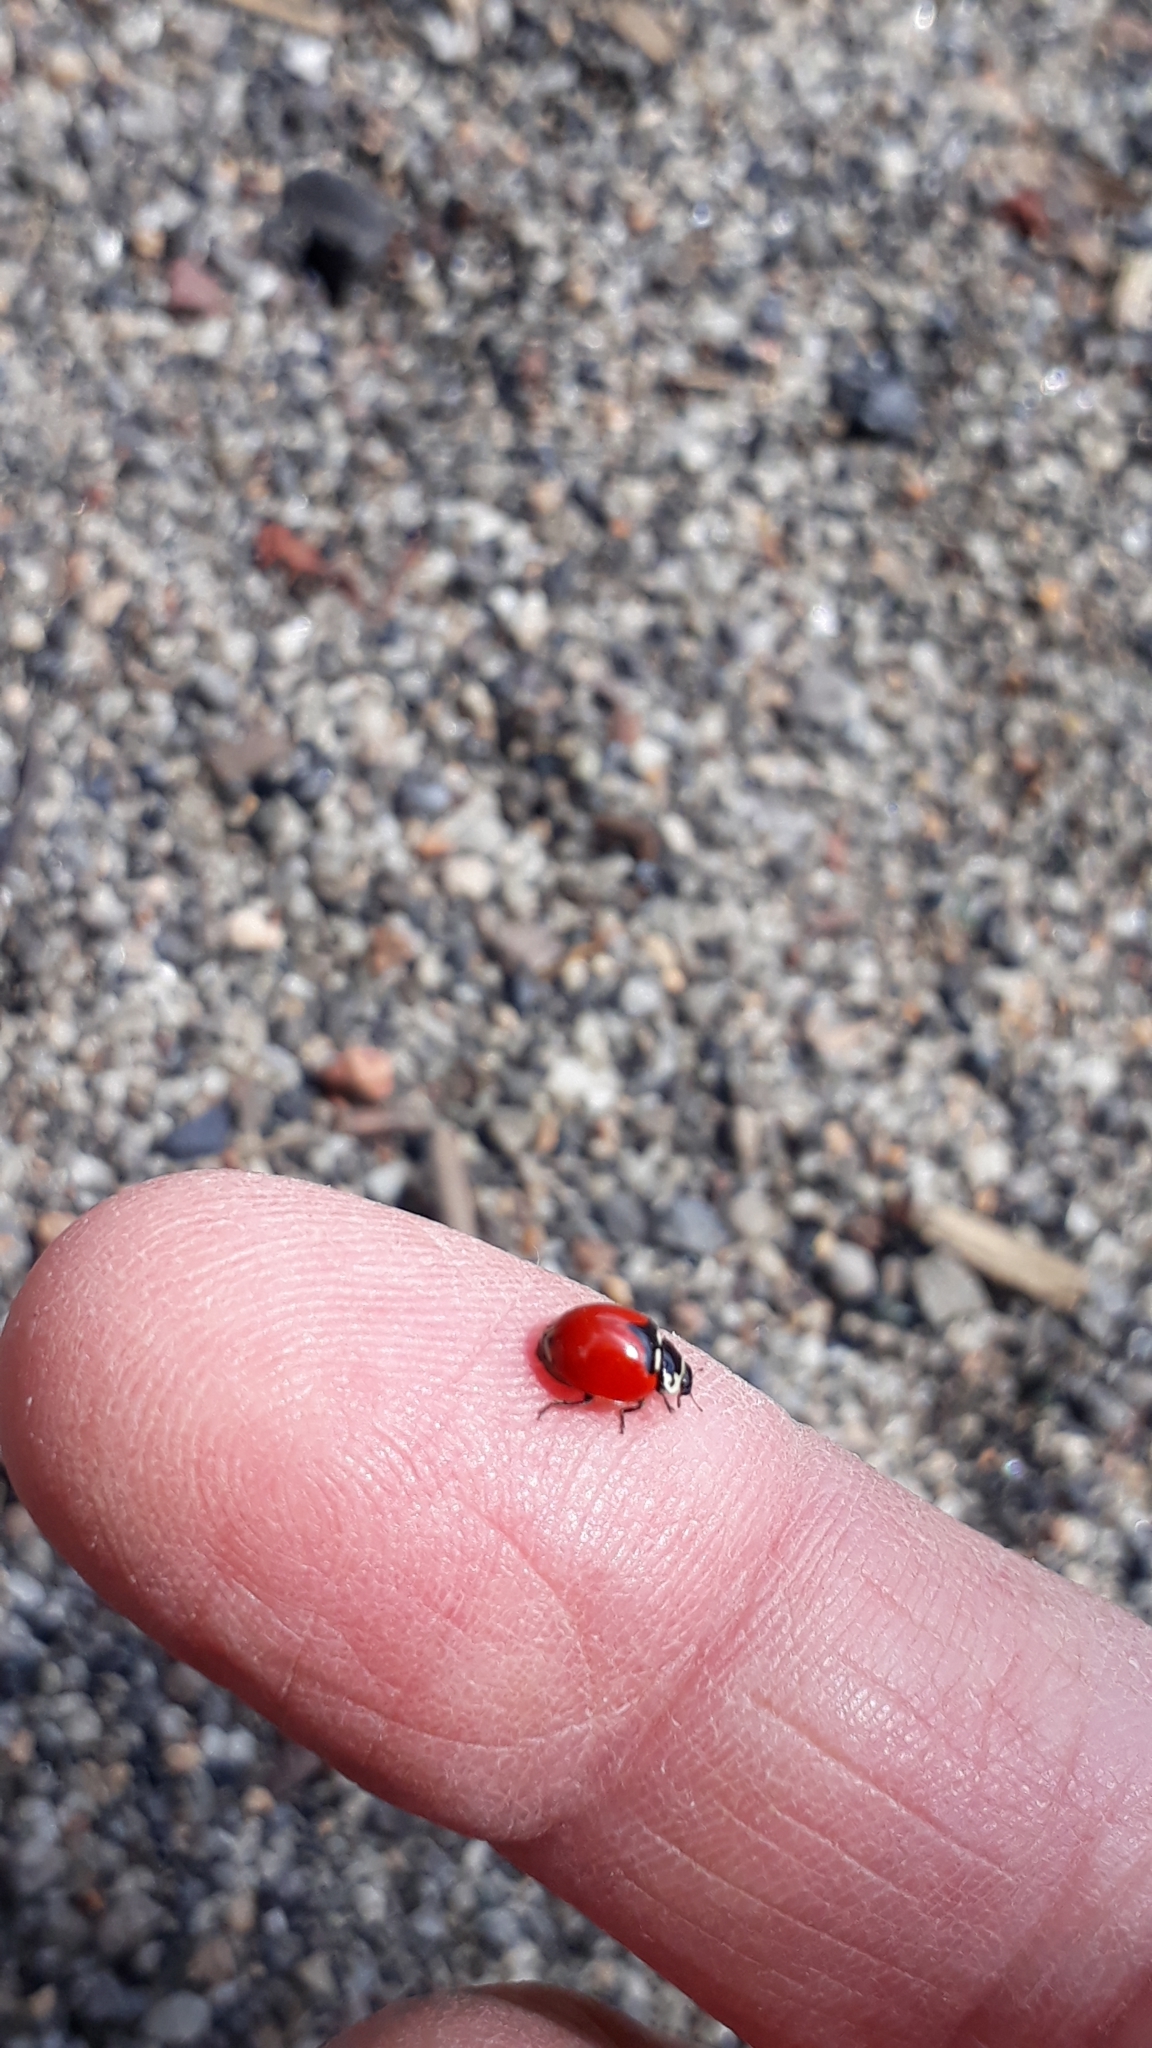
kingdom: Animalia
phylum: Arthropoda
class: Insecta
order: Coleoptera
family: Coccinellidae
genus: Adalia
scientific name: Adalia deficiens
